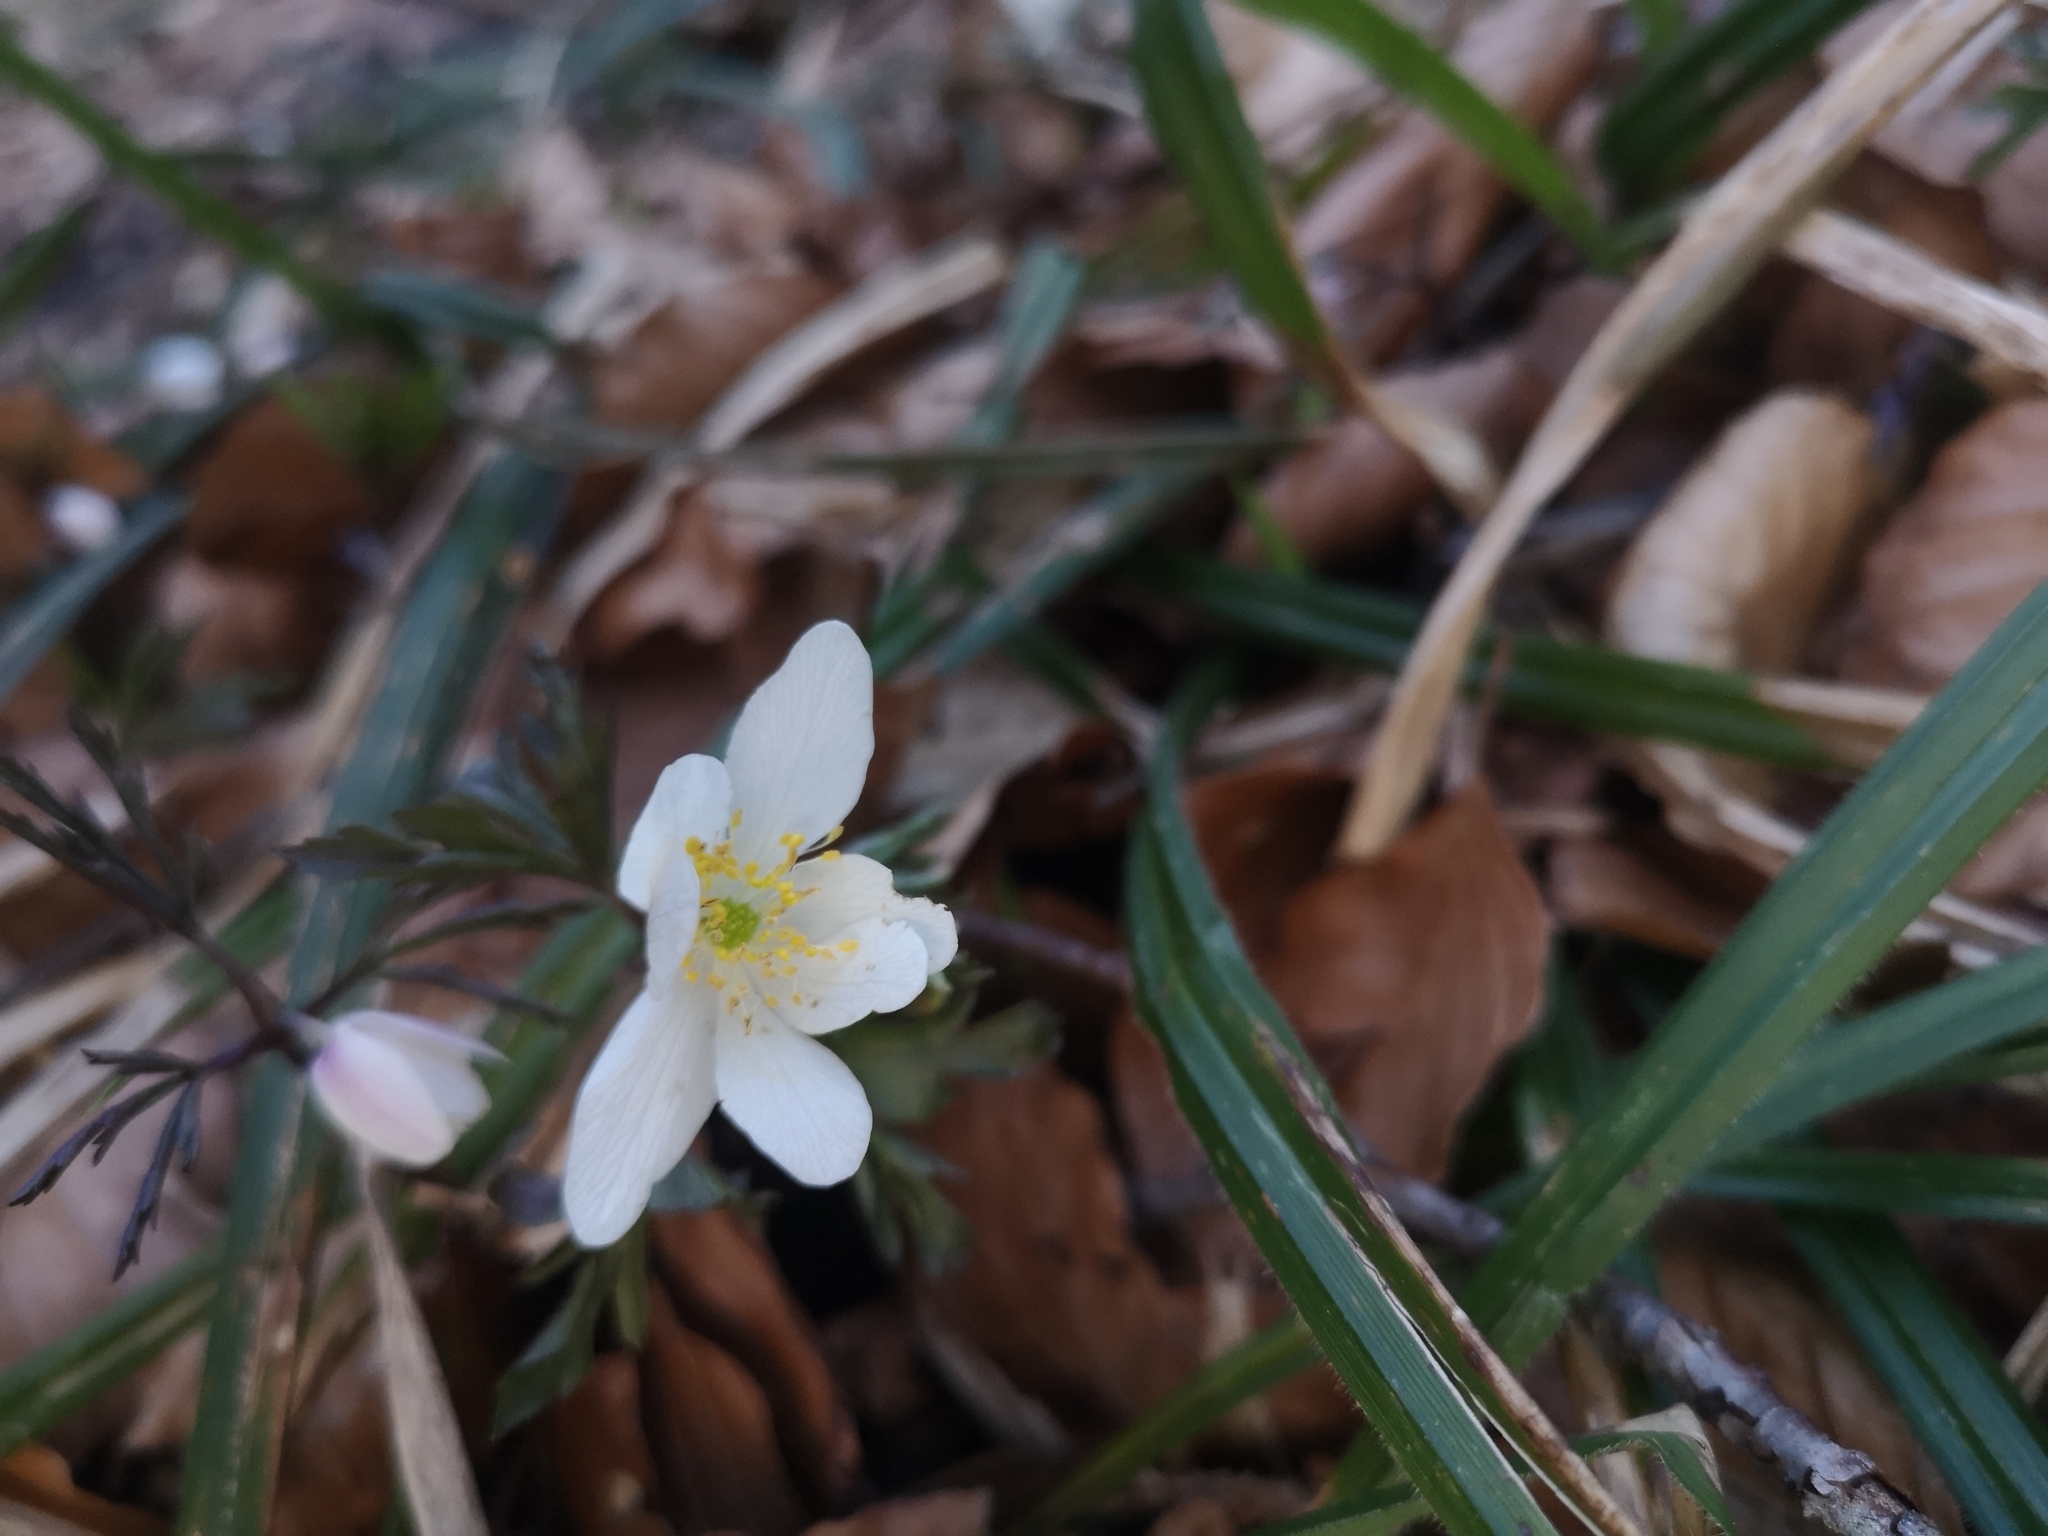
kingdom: Plantae
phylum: Tracheophyta
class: Magnoliopsida
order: Ranunculales
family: Ranunculaceae
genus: Anemone
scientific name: Anemone nemorosa
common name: Wood anemone
